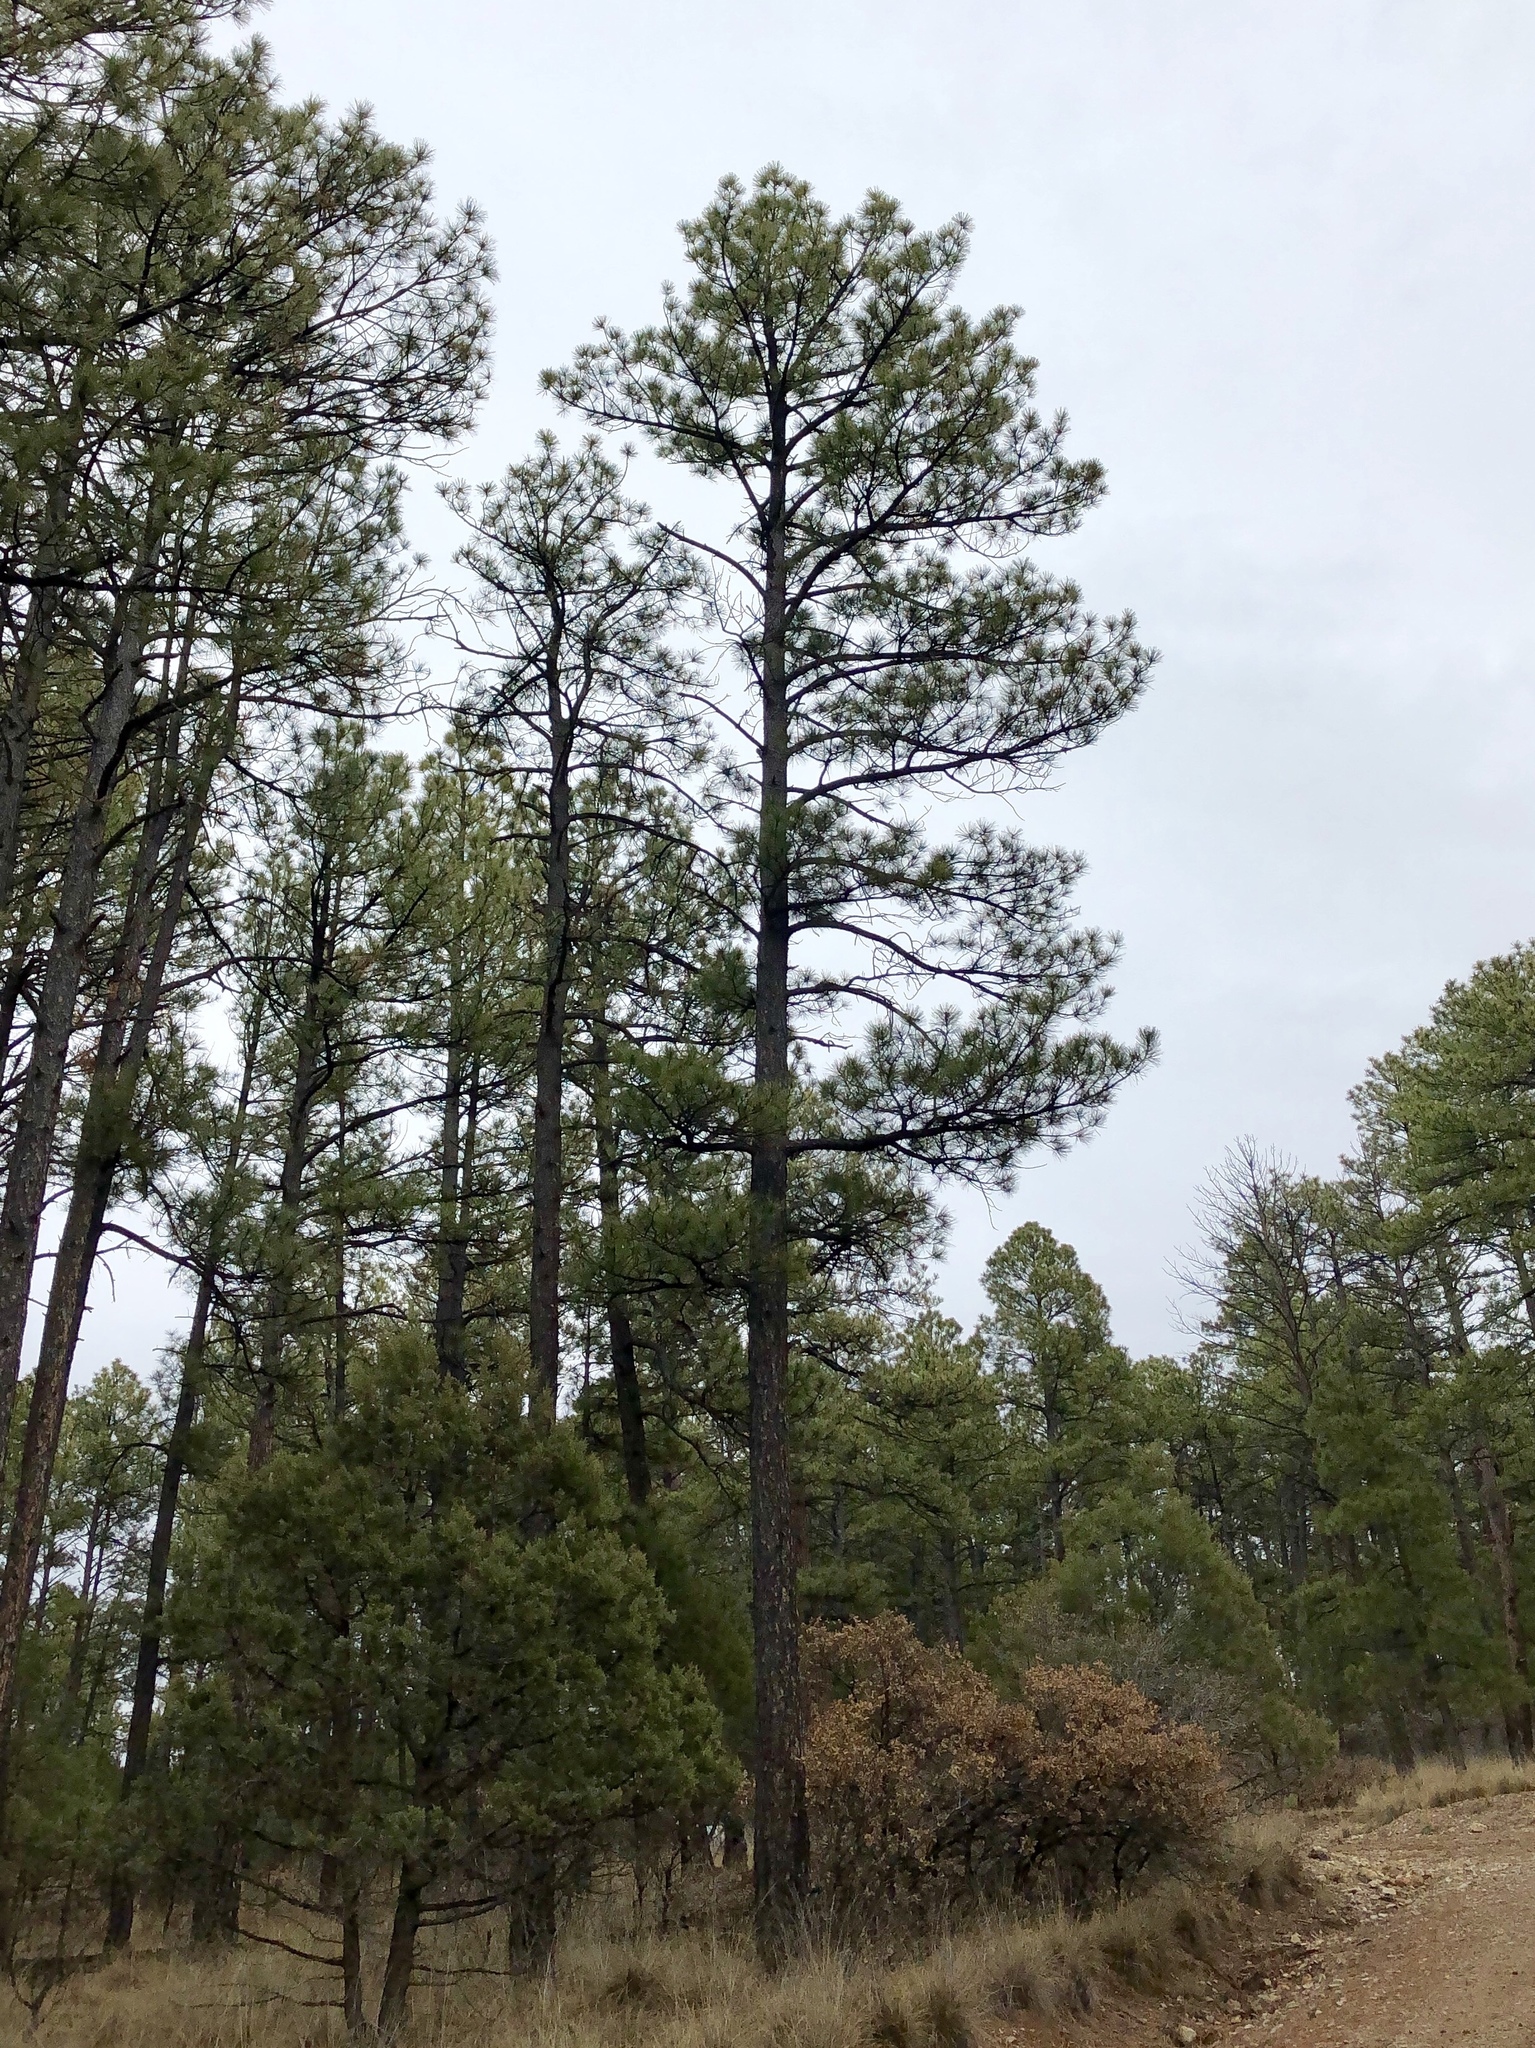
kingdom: Plantae
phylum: Tracheophyta
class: Pinopsida
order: Pinales
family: Pinaceae
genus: Pinus
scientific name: Pinus ponderosa
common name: Western yellow-pine
